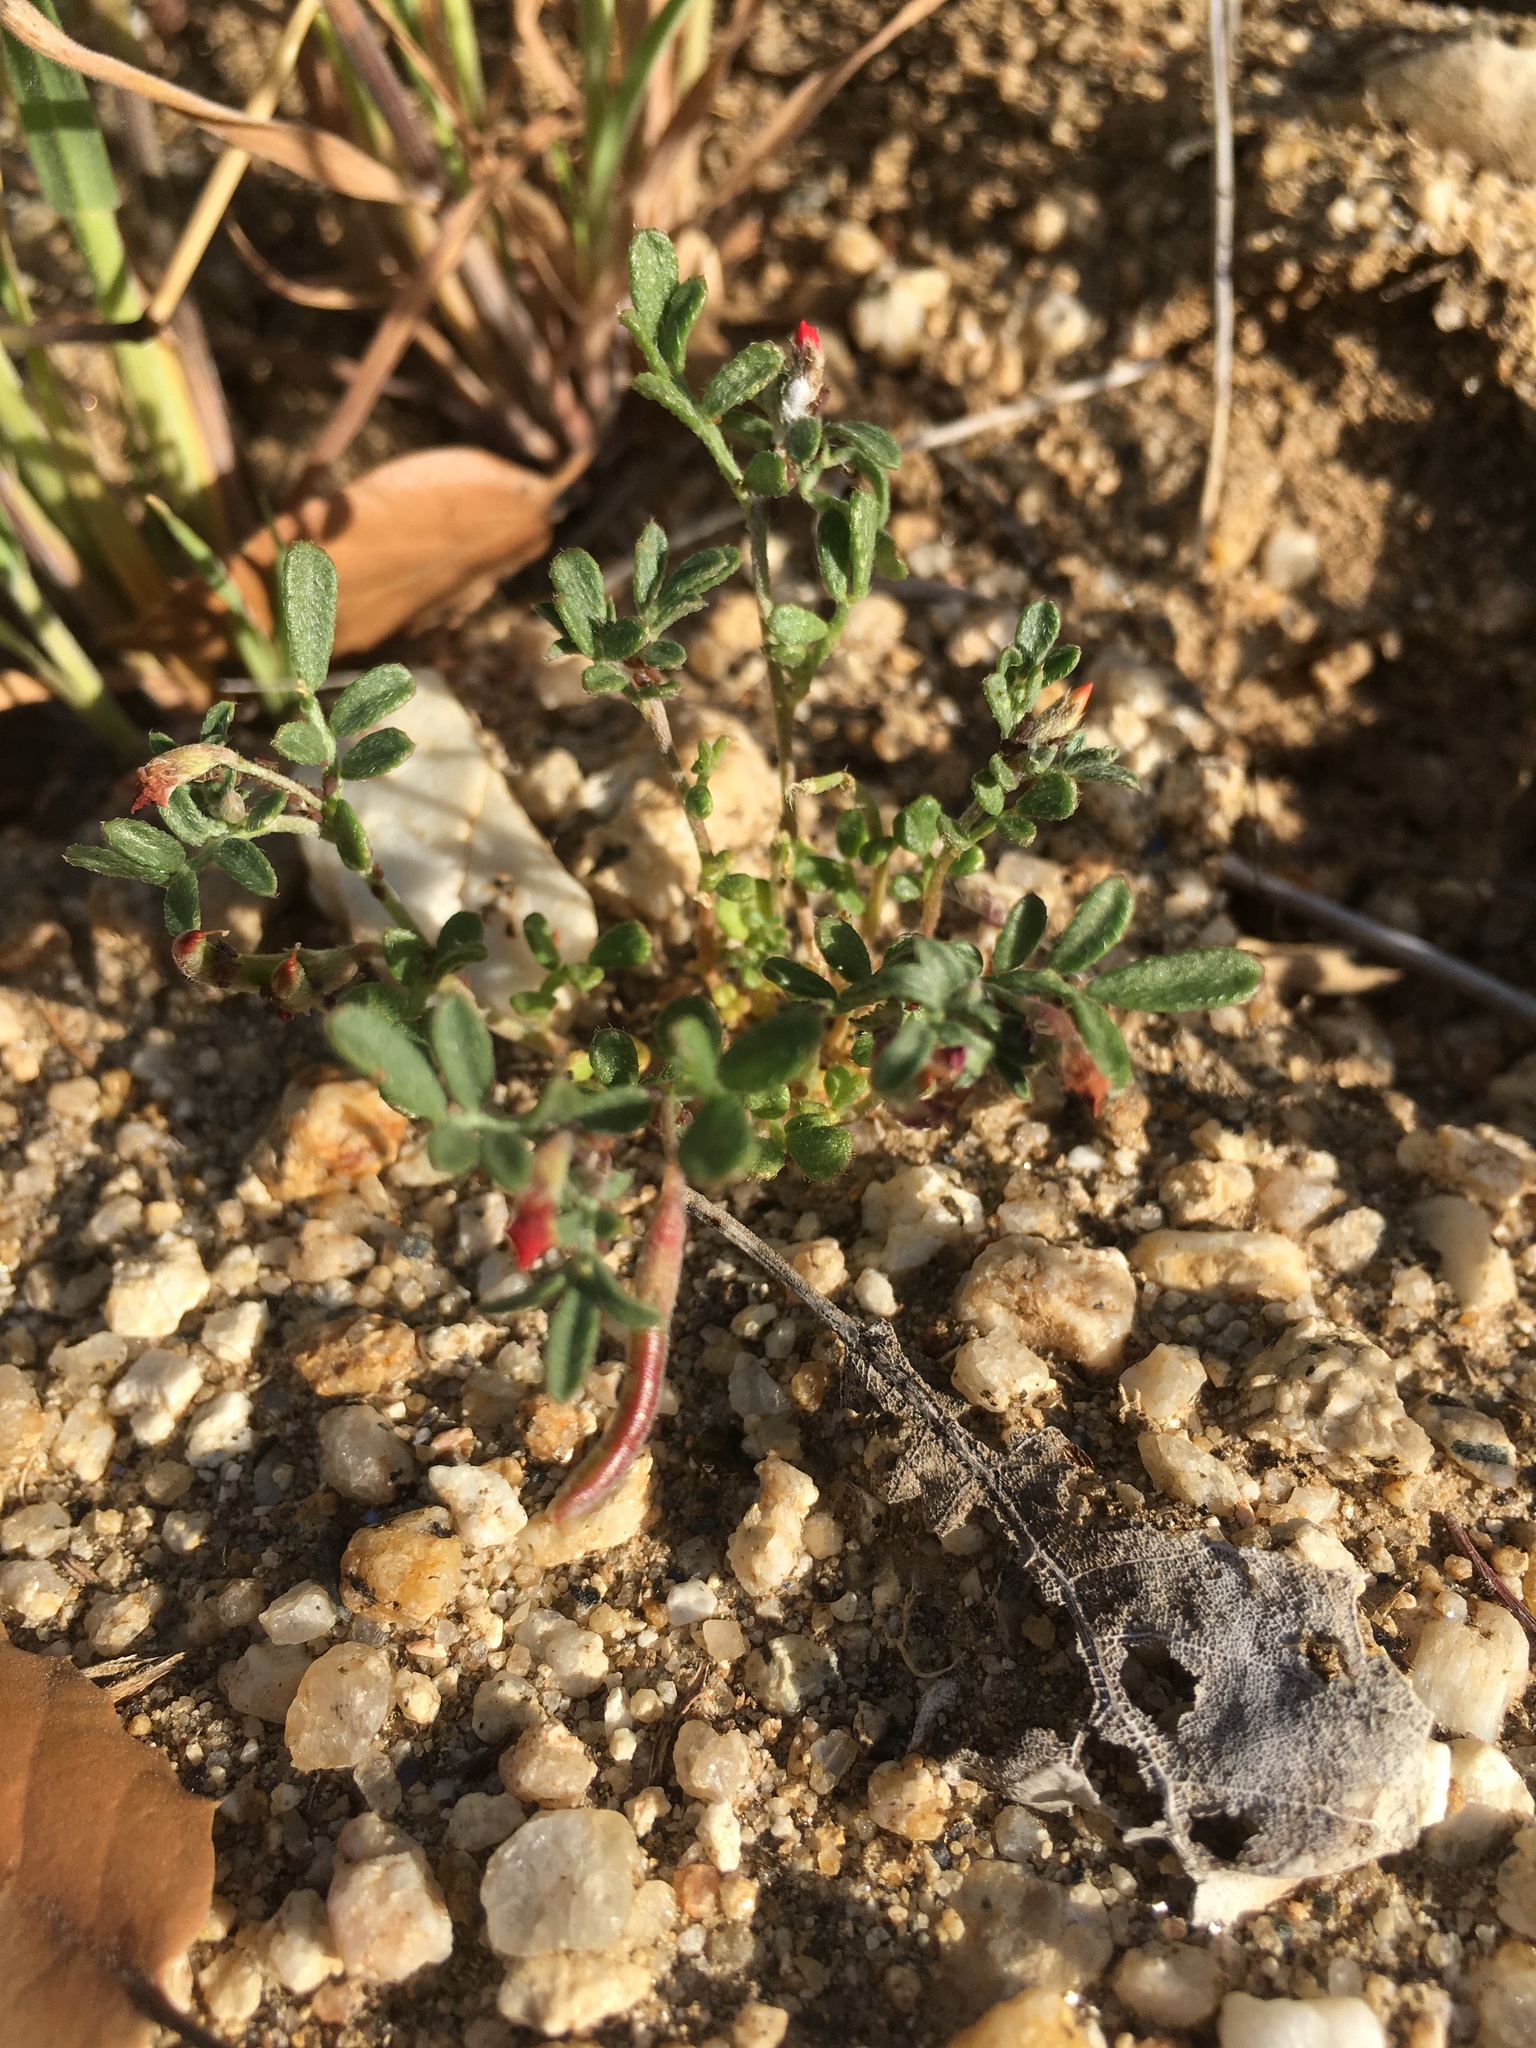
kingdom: Plantae
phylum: Tracheophyta
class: Magnoliopsida
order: Fabales
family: Fabaceae
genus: Acmispon
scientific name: Acmispon strigosus
